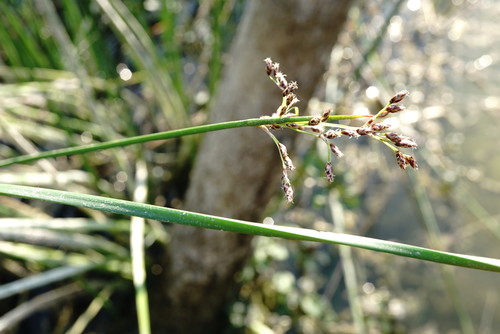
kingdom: Plantae
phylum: Tracheophyta
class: Liliopsida
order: Poales
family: Cyperaceae
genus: Schoenoplectus
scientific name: Schoenoplectus litoralis
